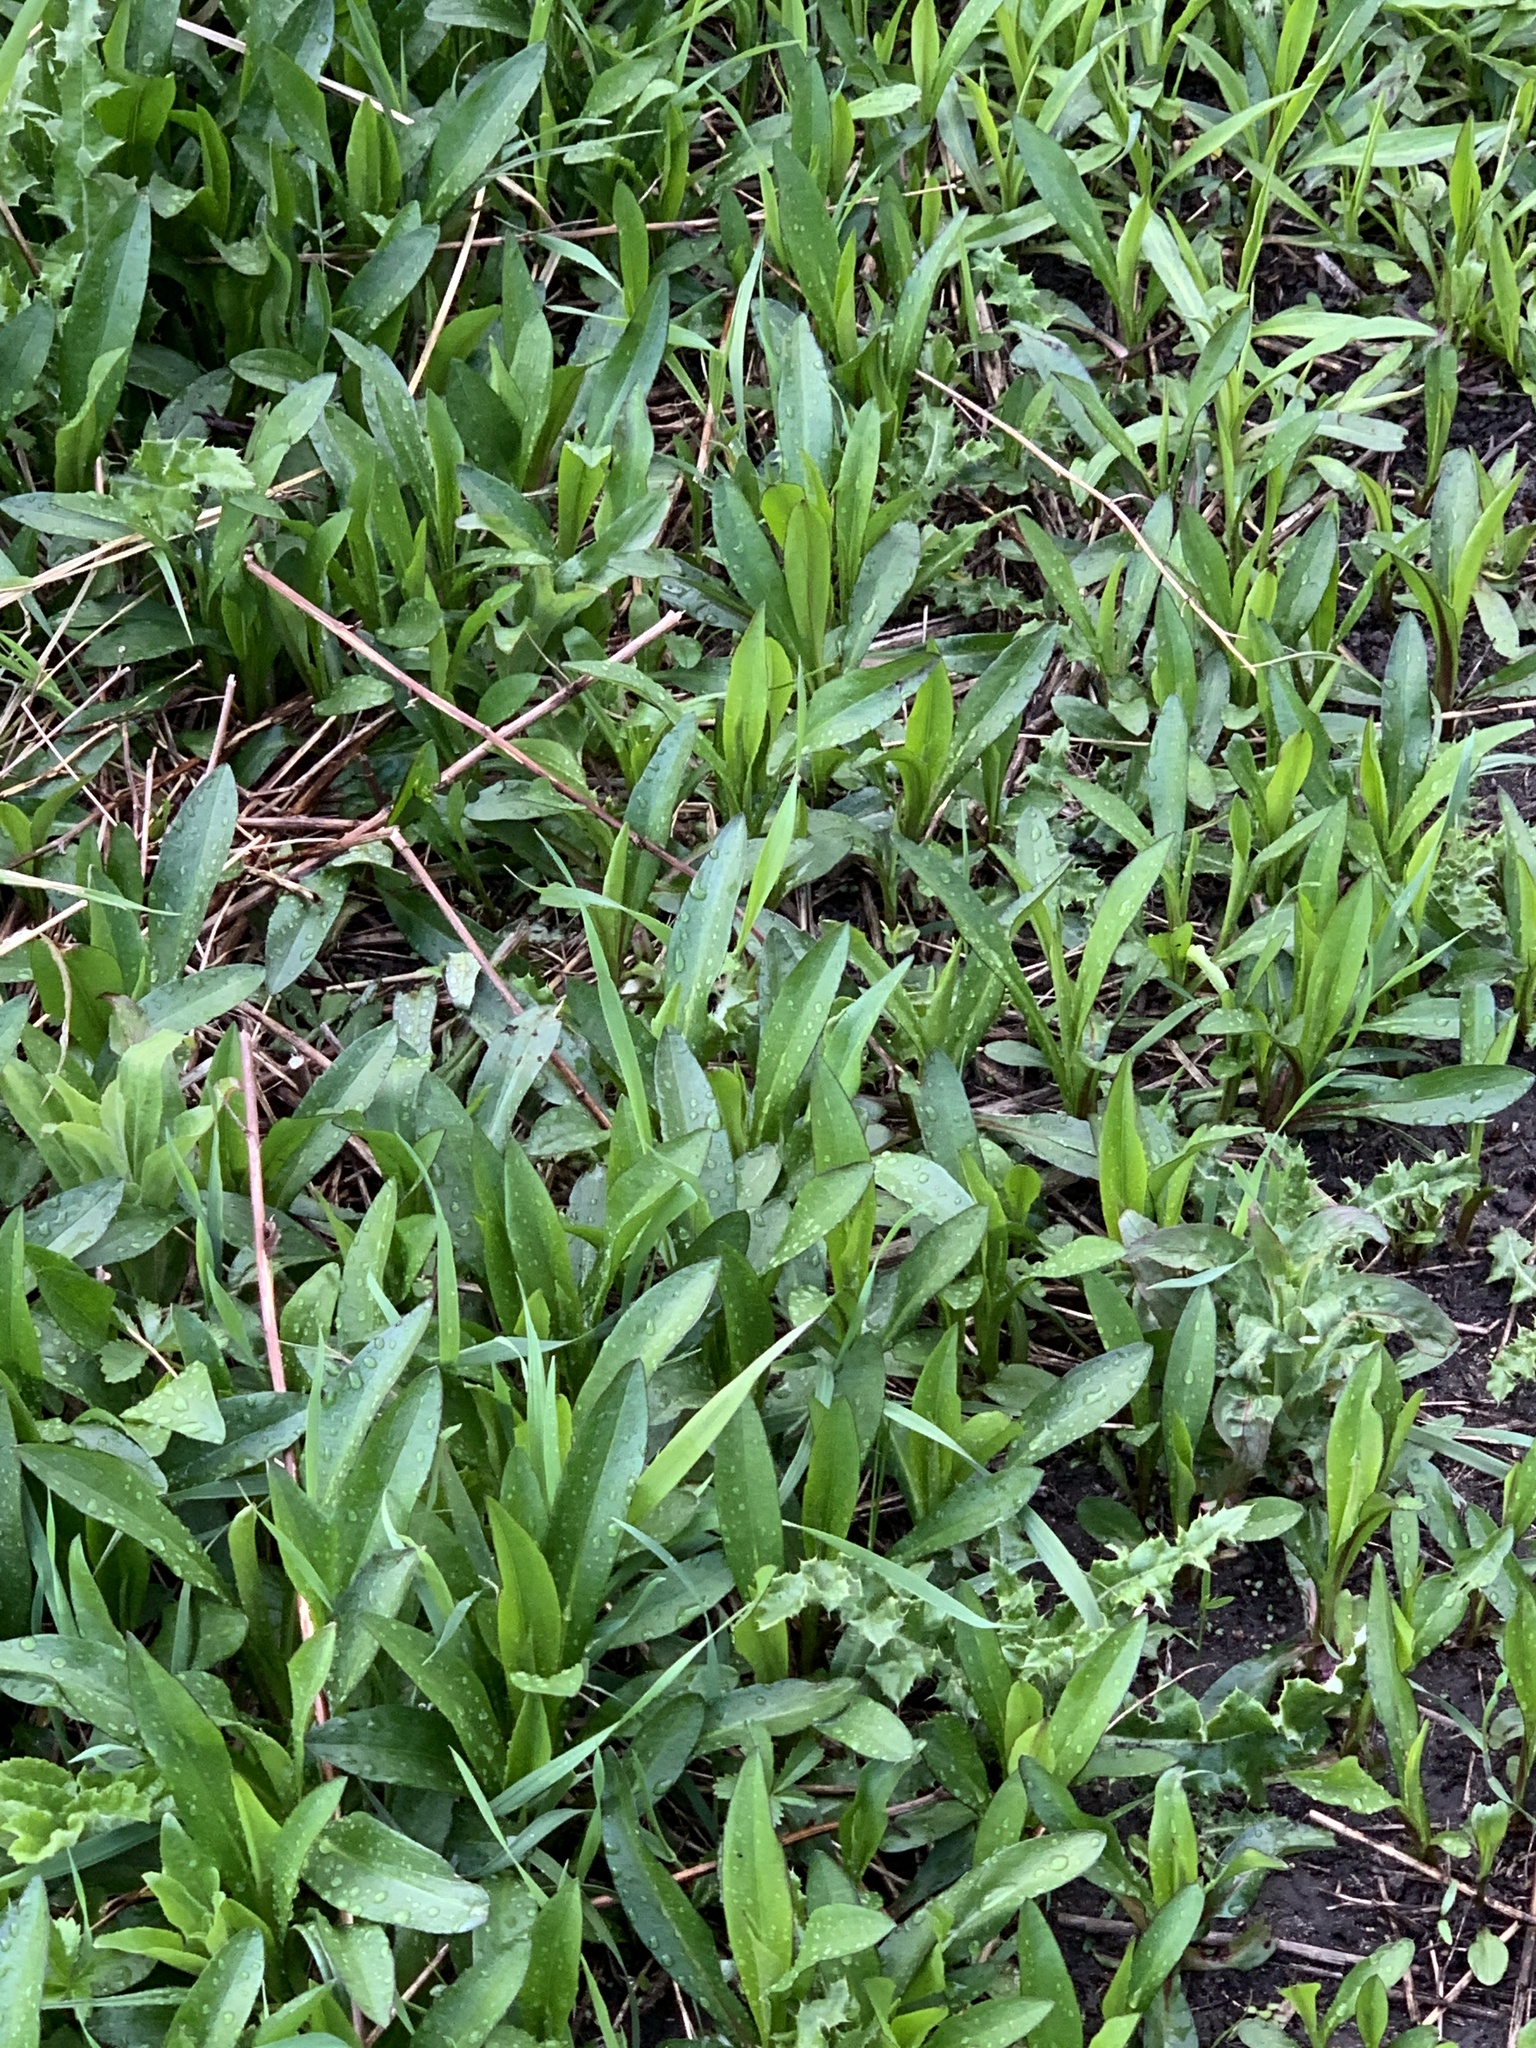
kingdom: Plantae
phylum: Tracheophyta
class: Magnoliopsida
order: Asterales
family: Asteraceae
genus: Symphyotrichum
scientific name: Symphyotrichum salignum
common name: Common michaelmas daisy
